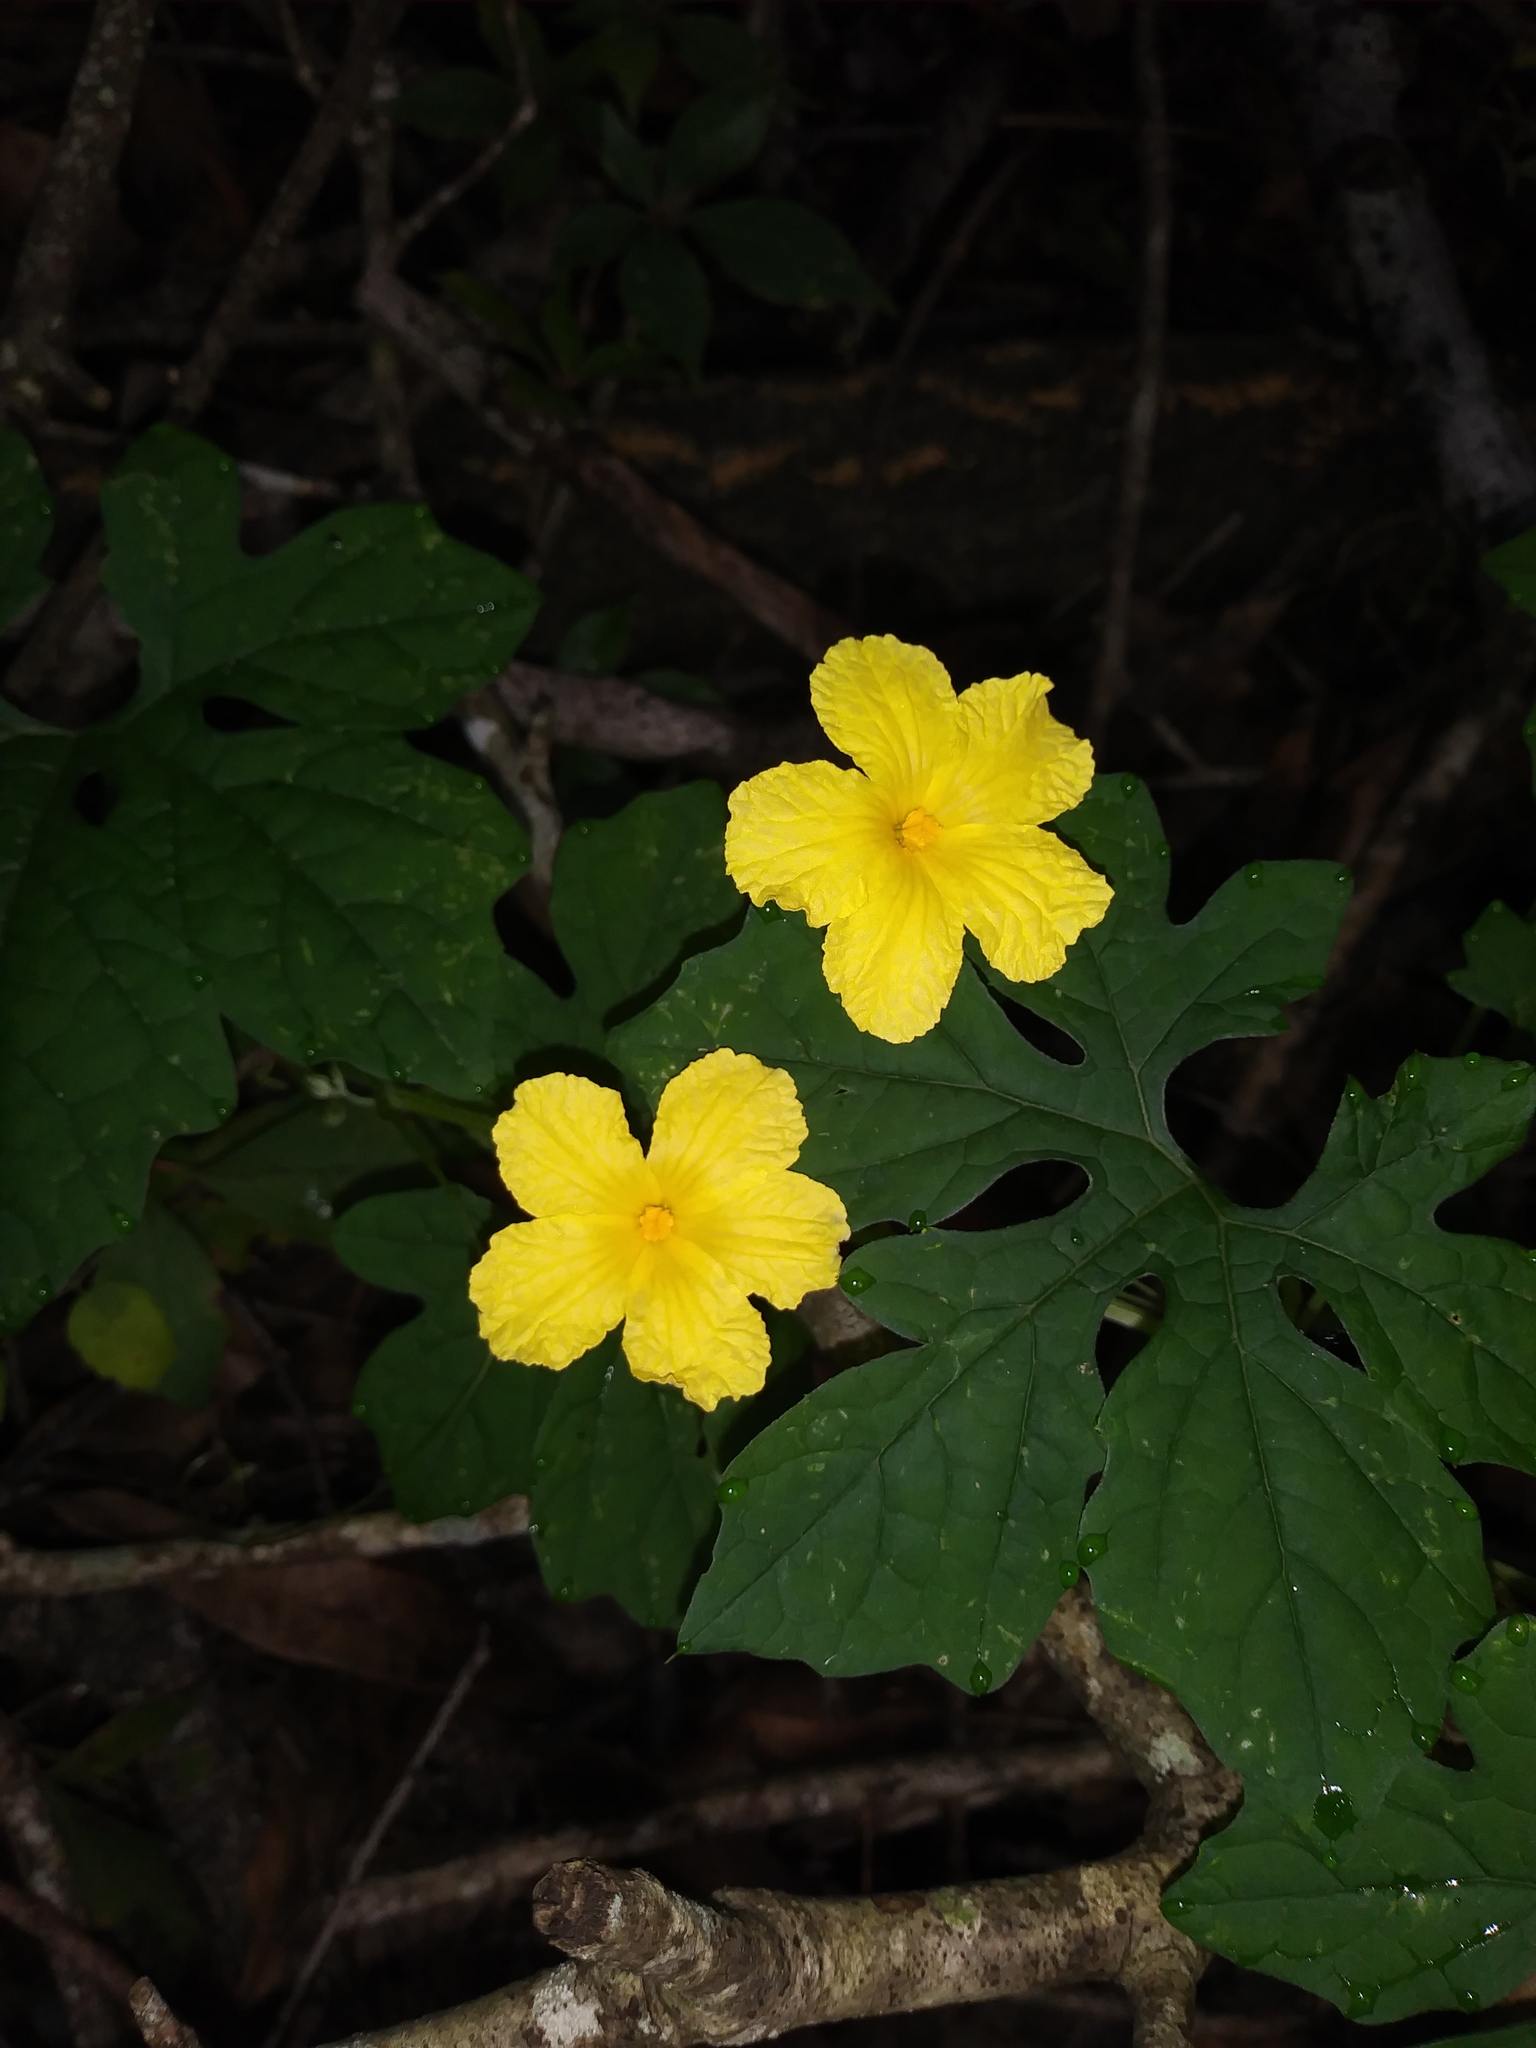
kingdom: Plantae
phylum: Tracheophyta
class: Magnoliopsida
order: Cucurbitales
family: Cucurbitaceae
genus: Momordica
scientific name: Momordica charantia
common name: Balsampear
